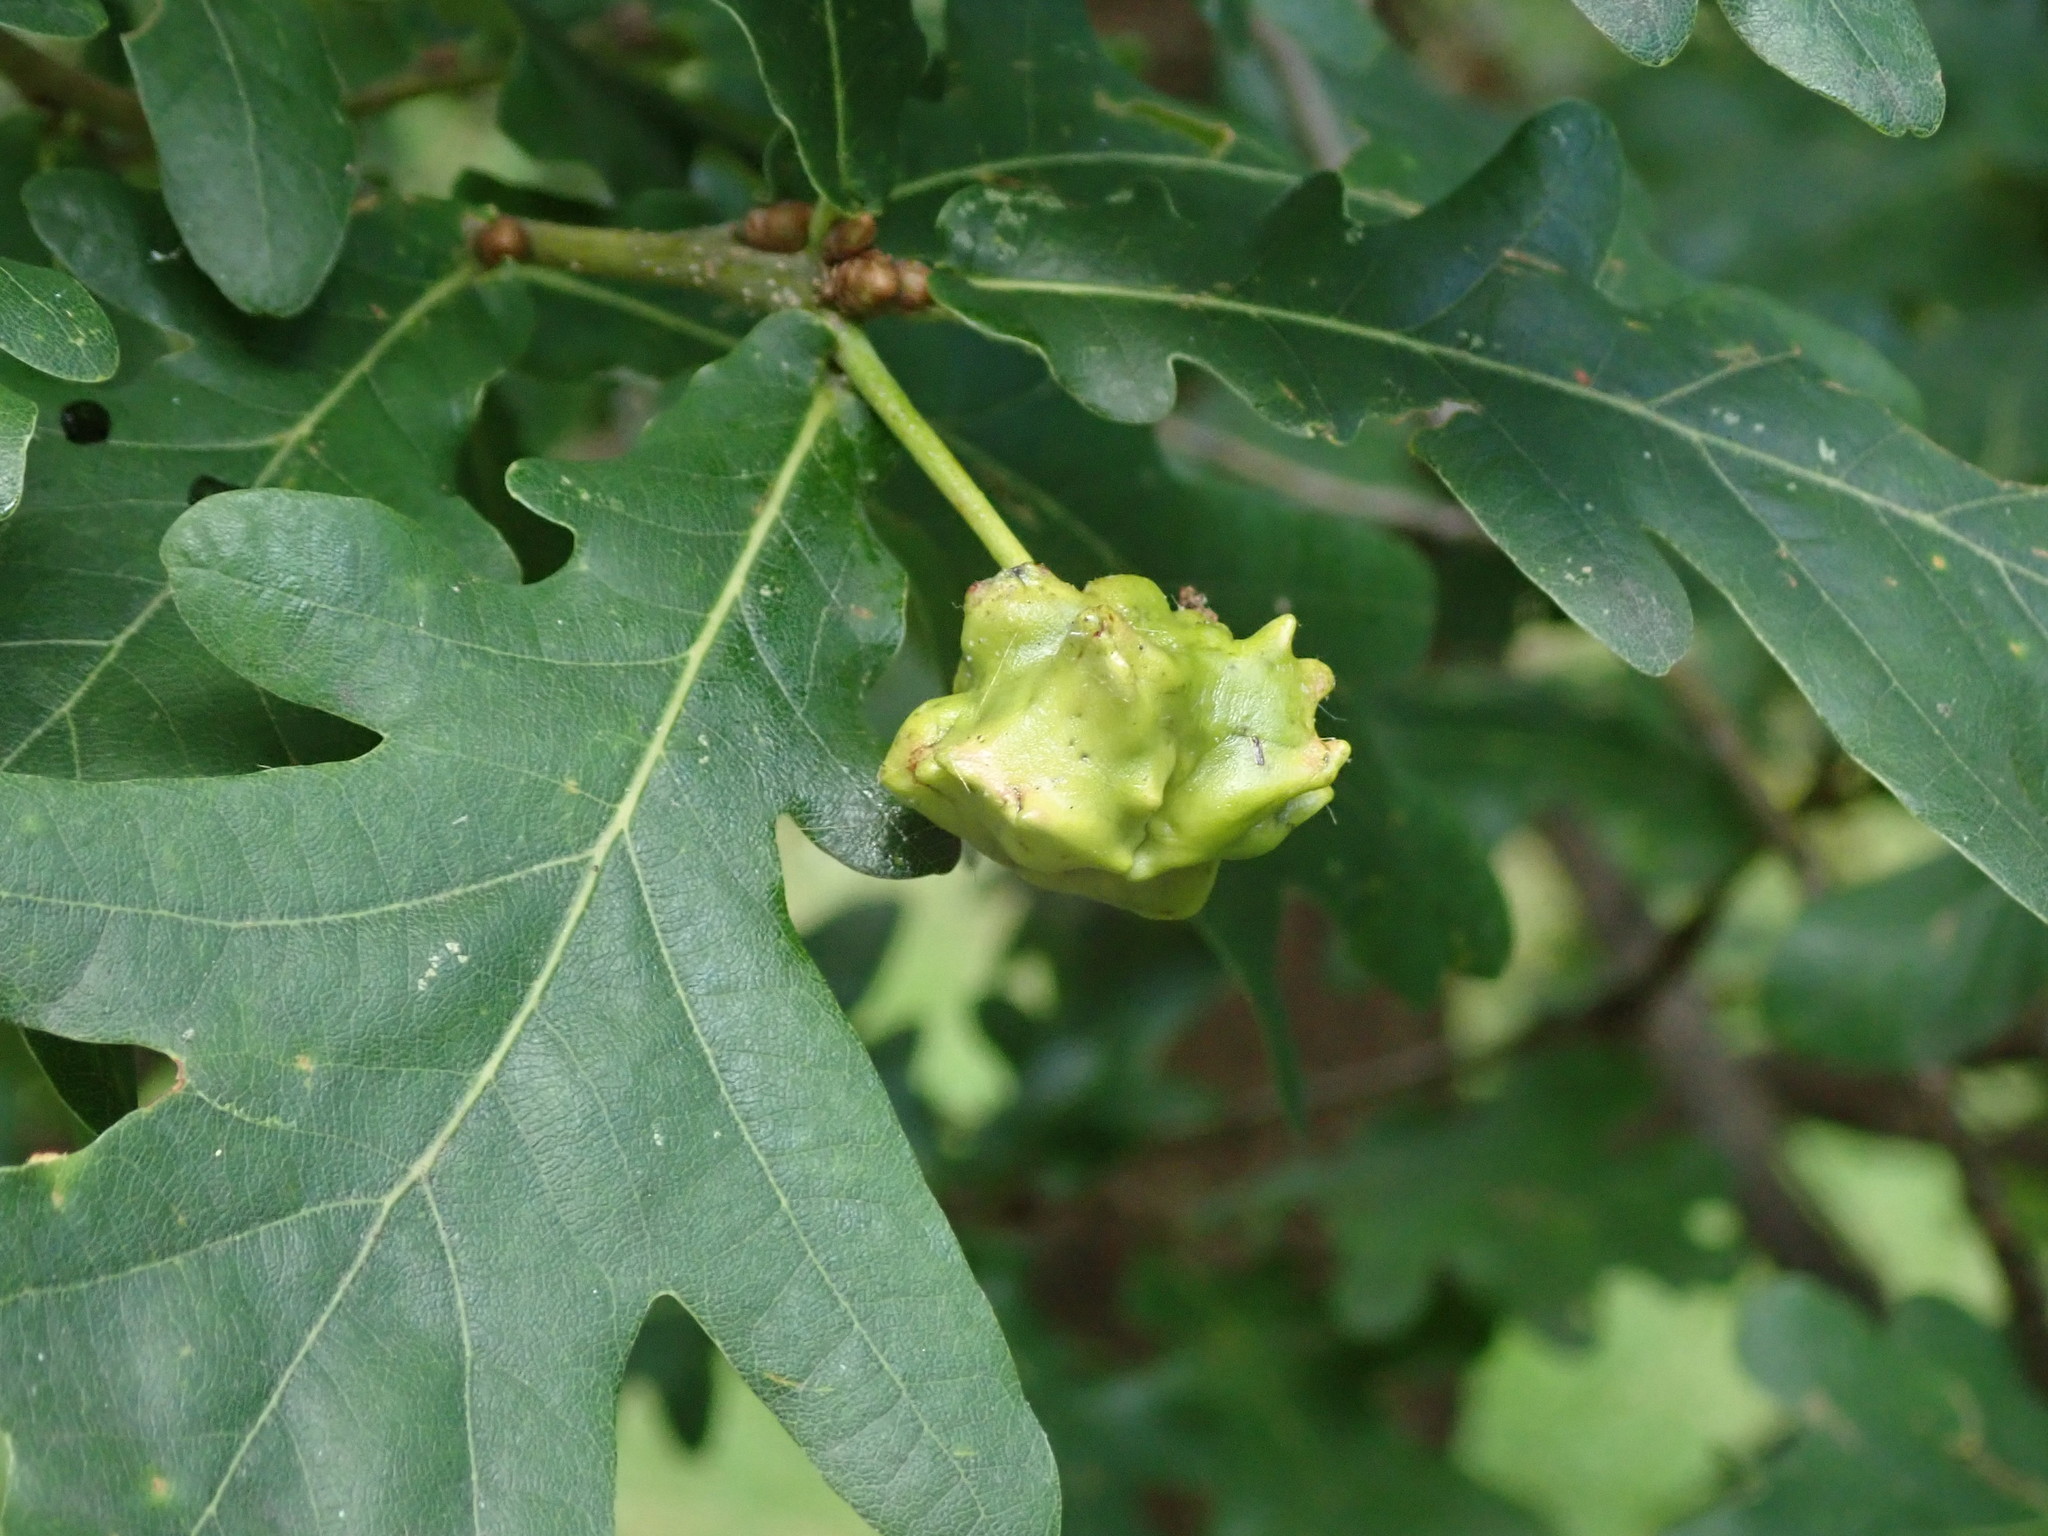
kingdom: Animalia
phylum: Arthropoda
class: Insecta
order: Hymenoptera
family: Cynipidae
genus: Andricus
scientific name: Andricus quercuscalicis
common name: Knopper gall
